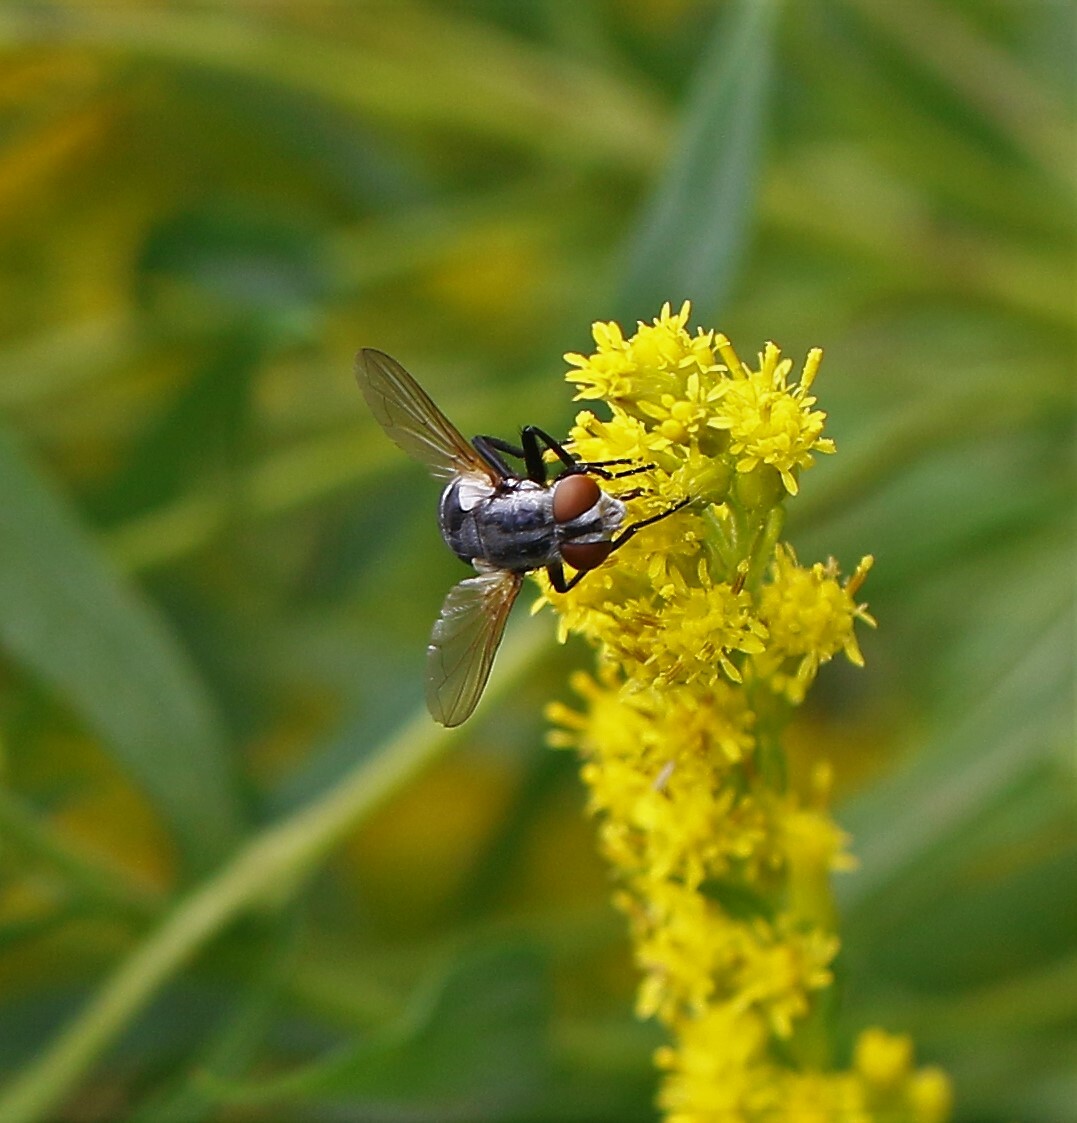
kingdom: Animalia
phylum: Arthropoda
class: Insecta
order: Diptera
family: Tachinidae
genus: Gymnoclytia
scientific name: Gymnoclytia occidua
